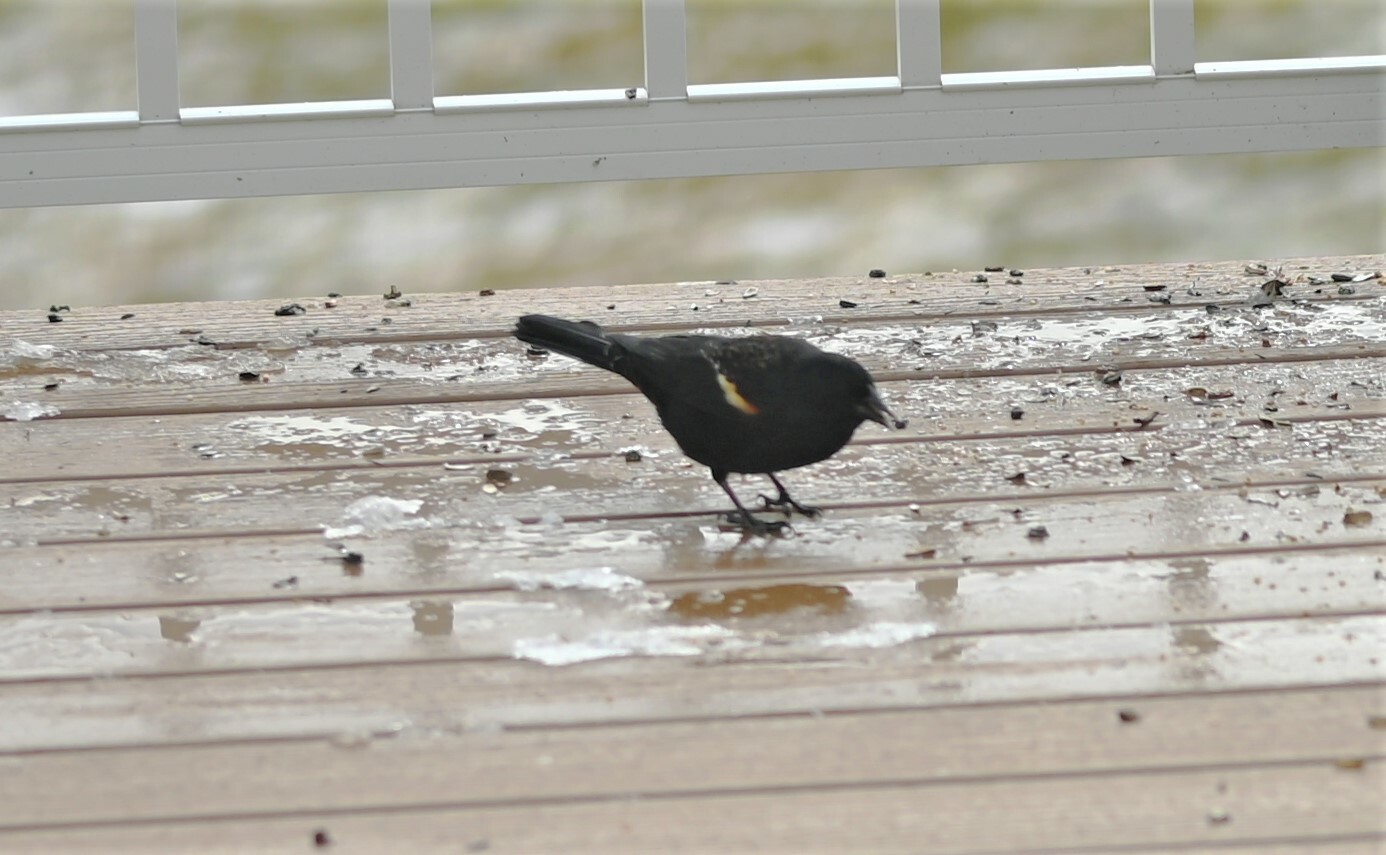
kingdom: Animalia
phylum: Chordata
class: Aves
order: Passeriformes
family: Icteridae
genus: Agelaius
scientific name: Agelaius phoeniceus
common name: Red-winged blackbird
